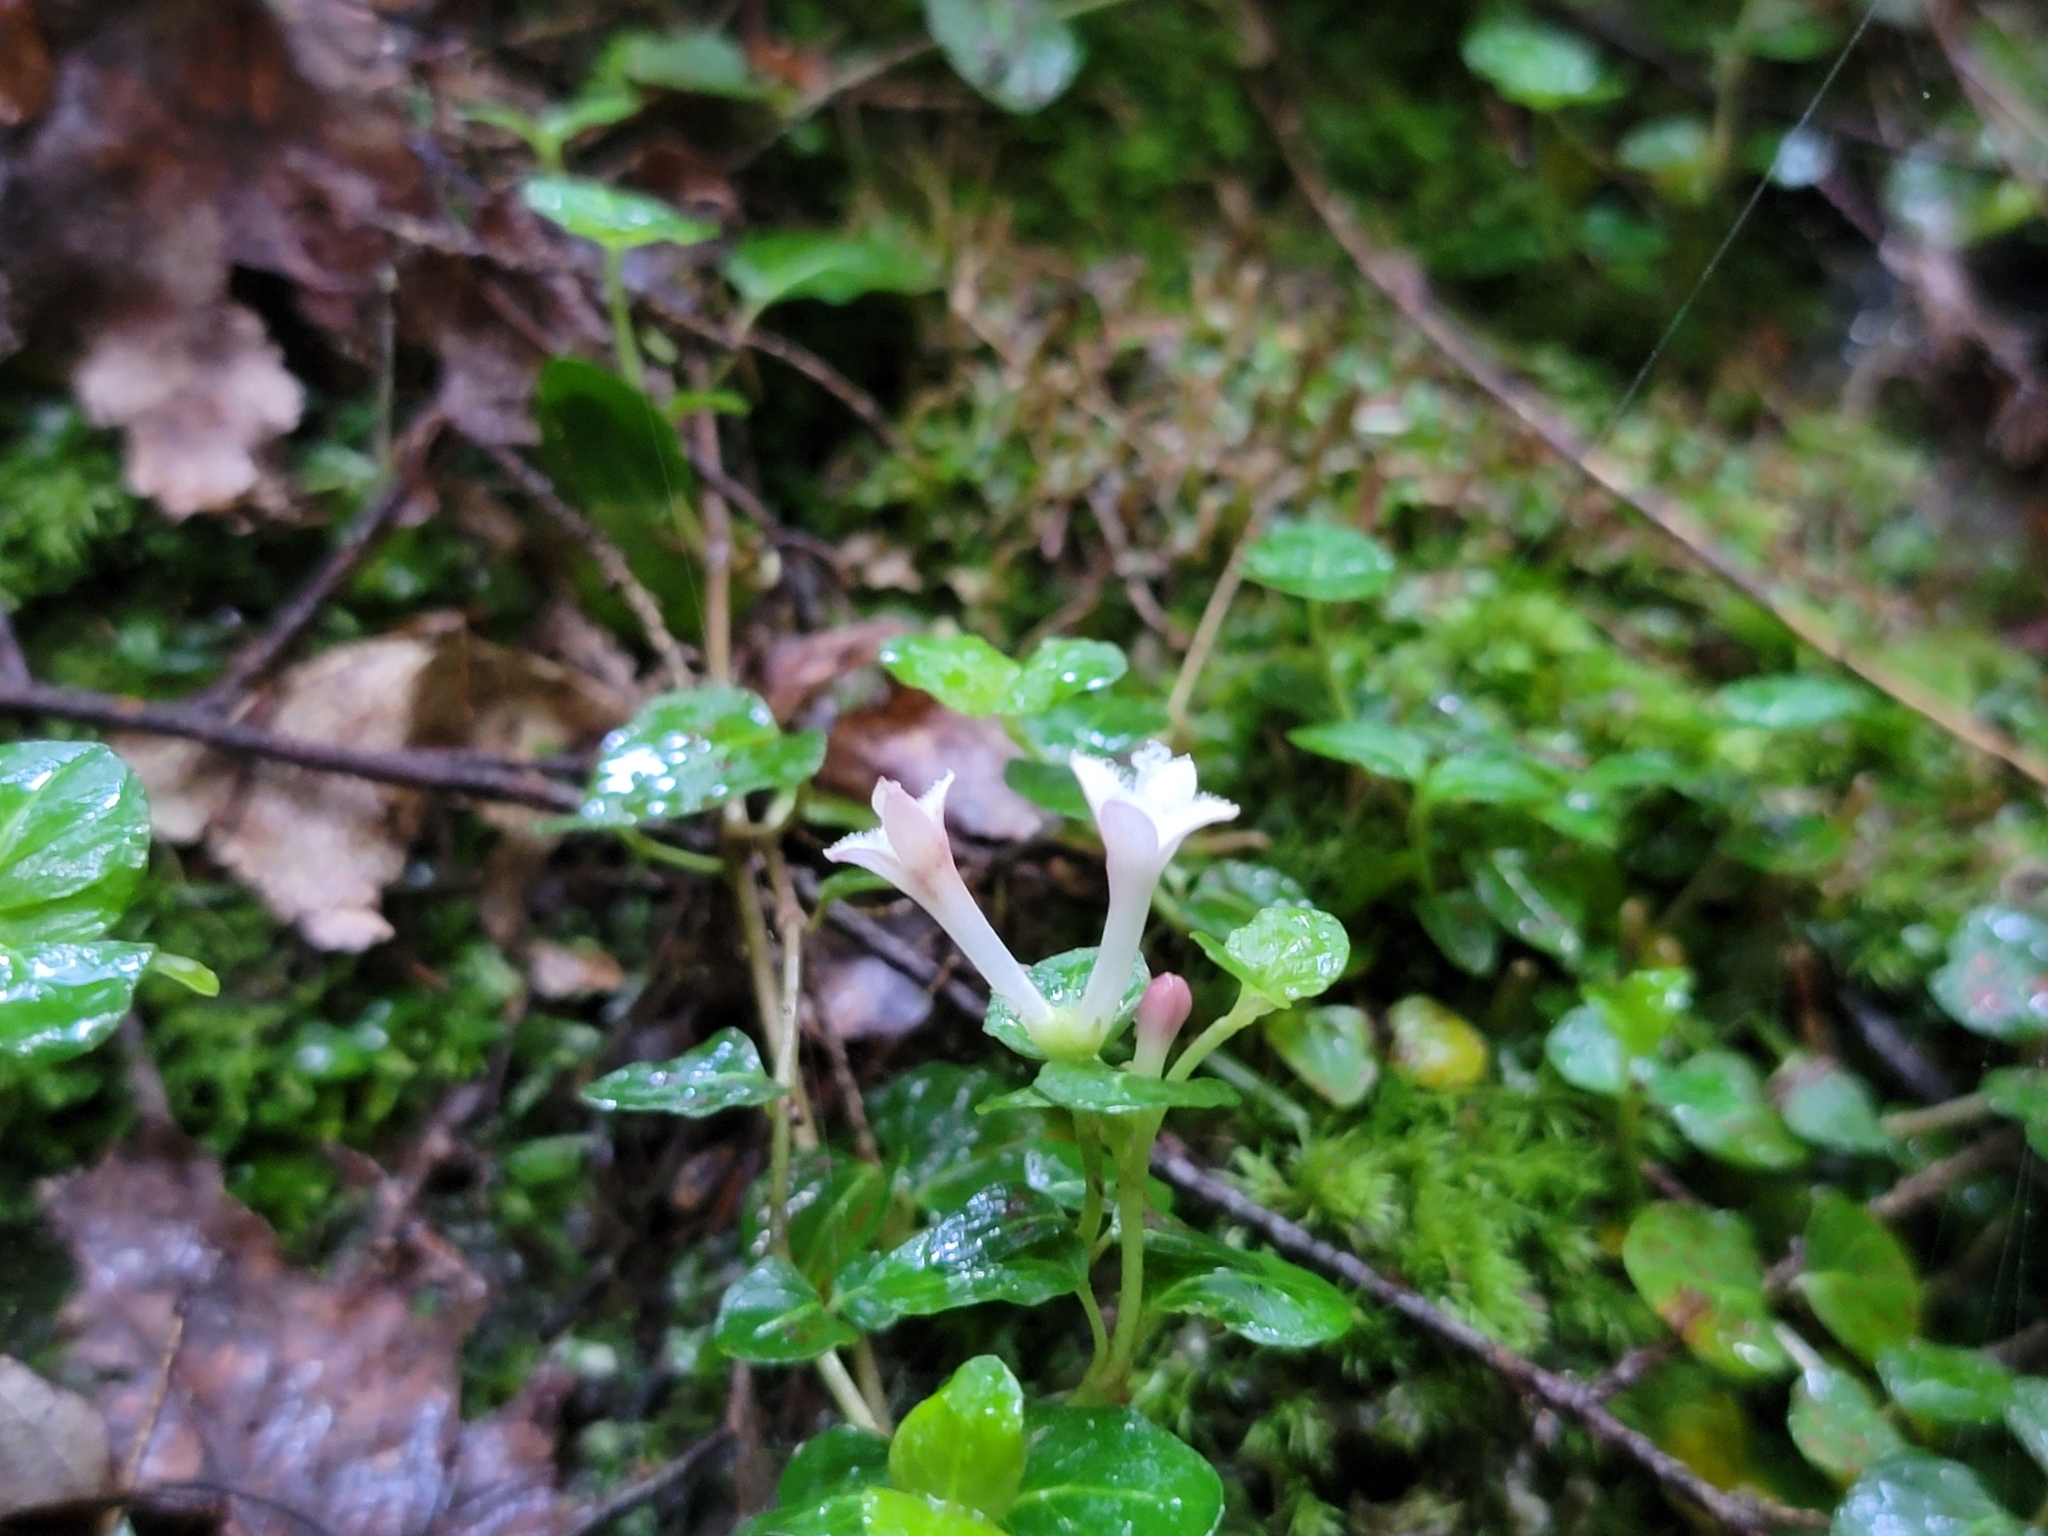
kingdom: Plantae
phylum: Tracheophyta
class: Magnoliopsida
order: Gentianales
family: Rubiaceae
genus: Mitchella
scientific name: Mitchella repens
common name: Partridge-berry
